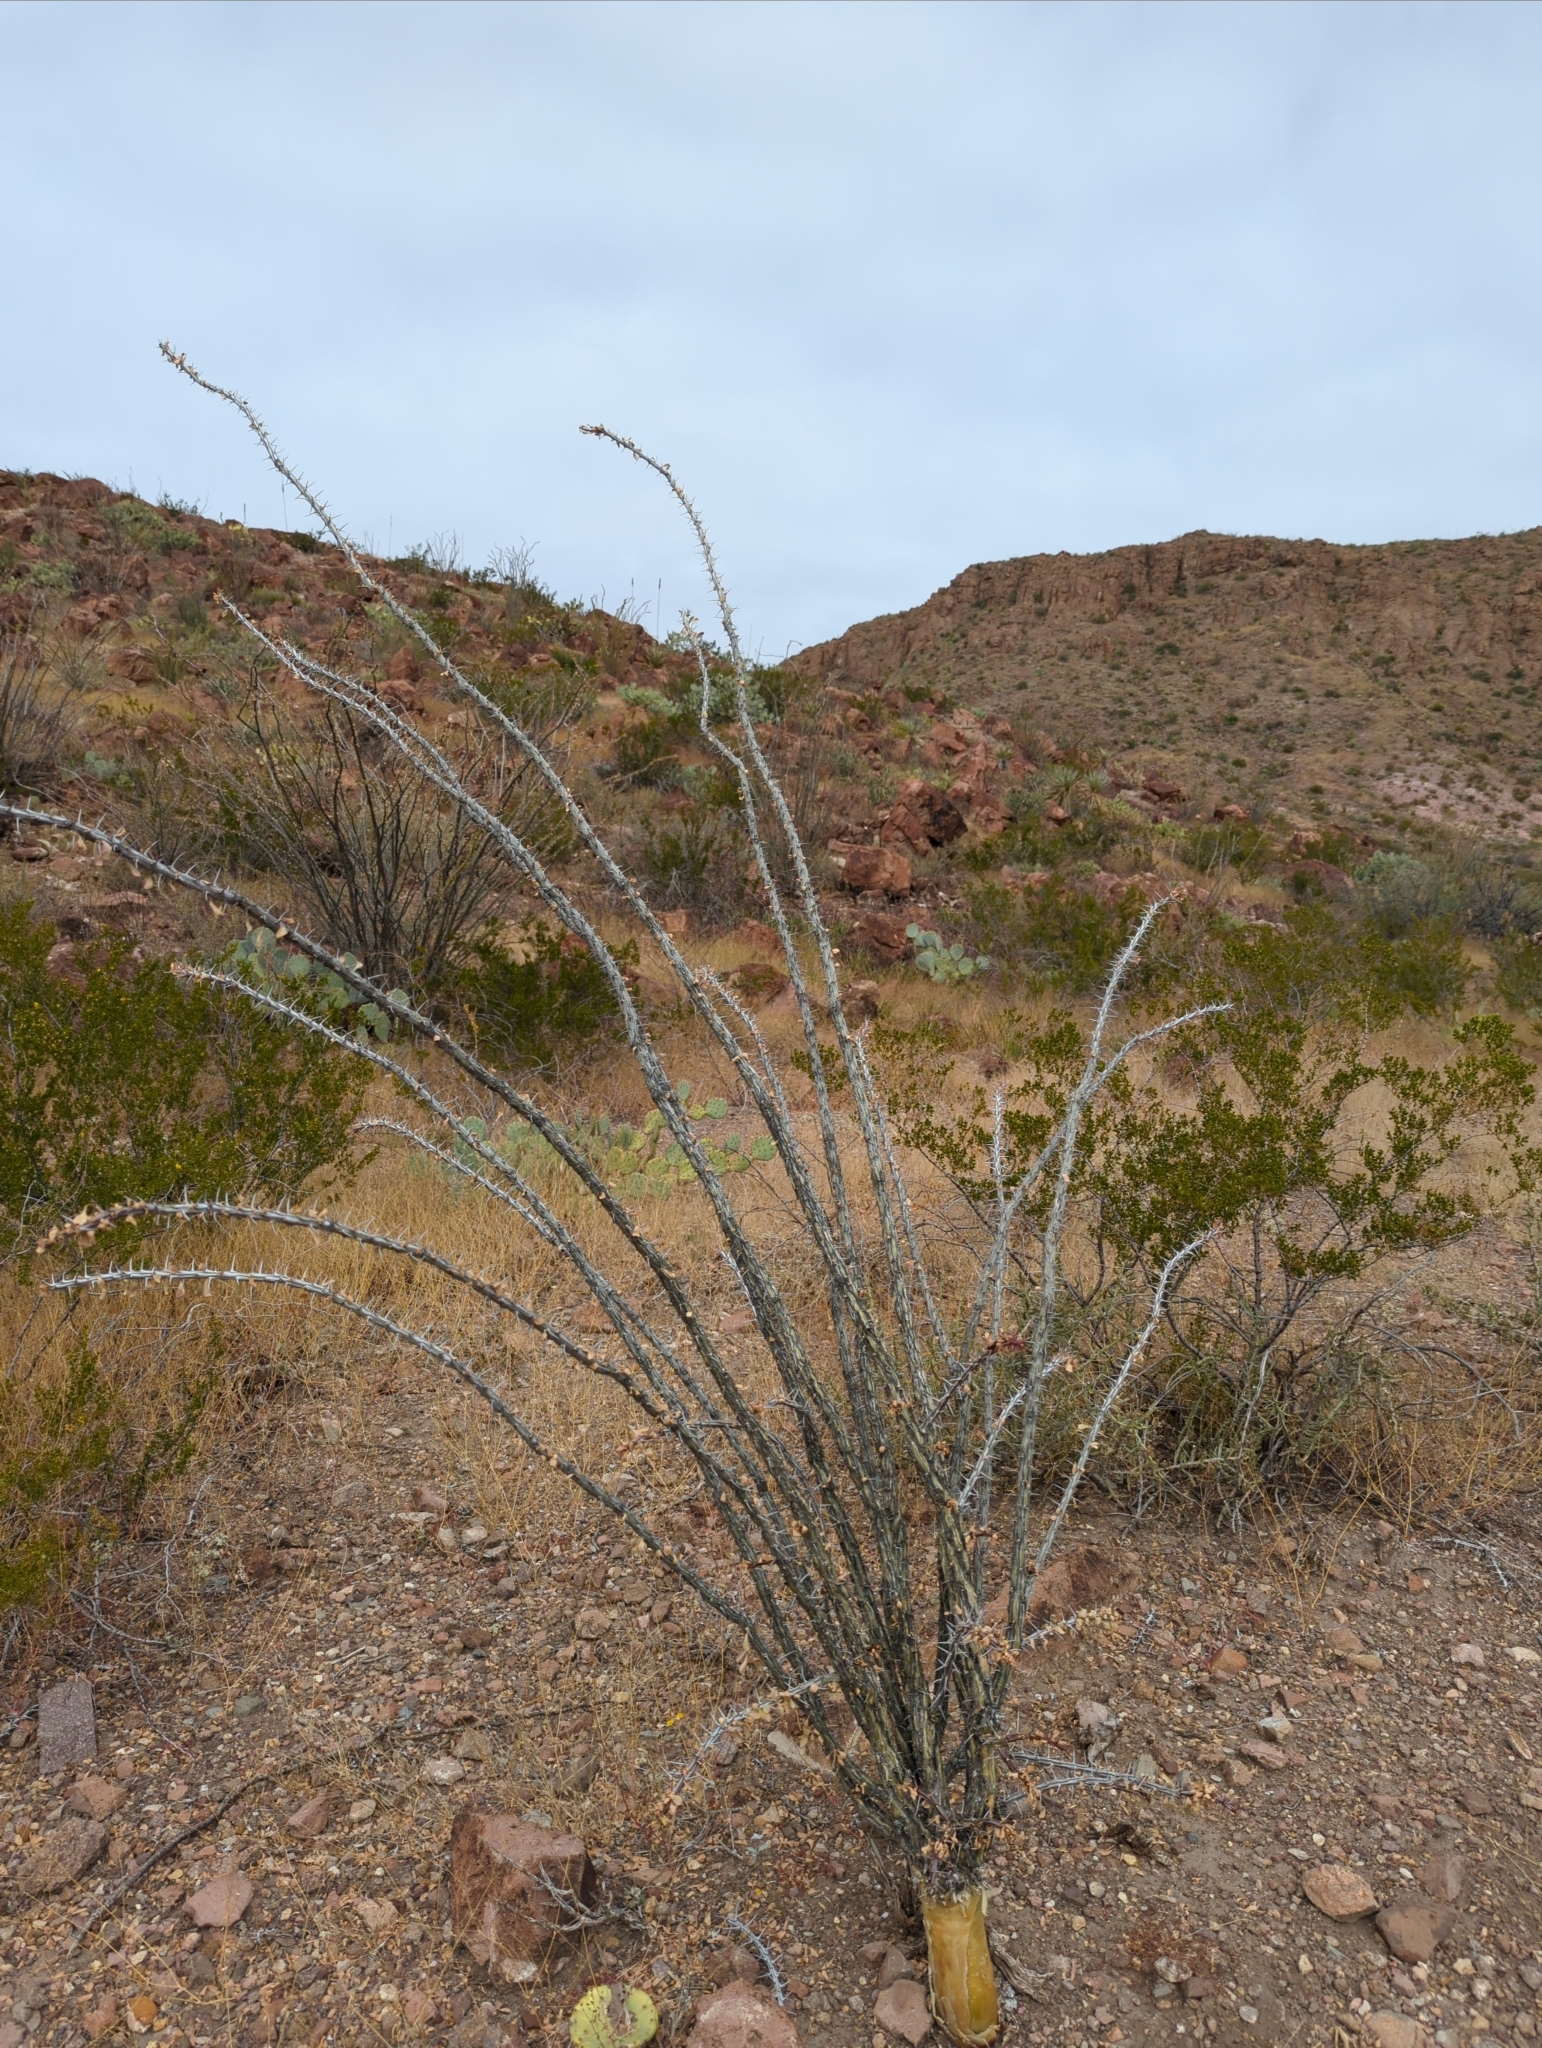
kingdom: Plantae
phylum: Tracheophyta
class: Magnoliopsida
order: Ericales
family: Fouquieriaceae
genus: Fouquieria
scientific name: Fouquieria splendens
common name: Vine-cactus
